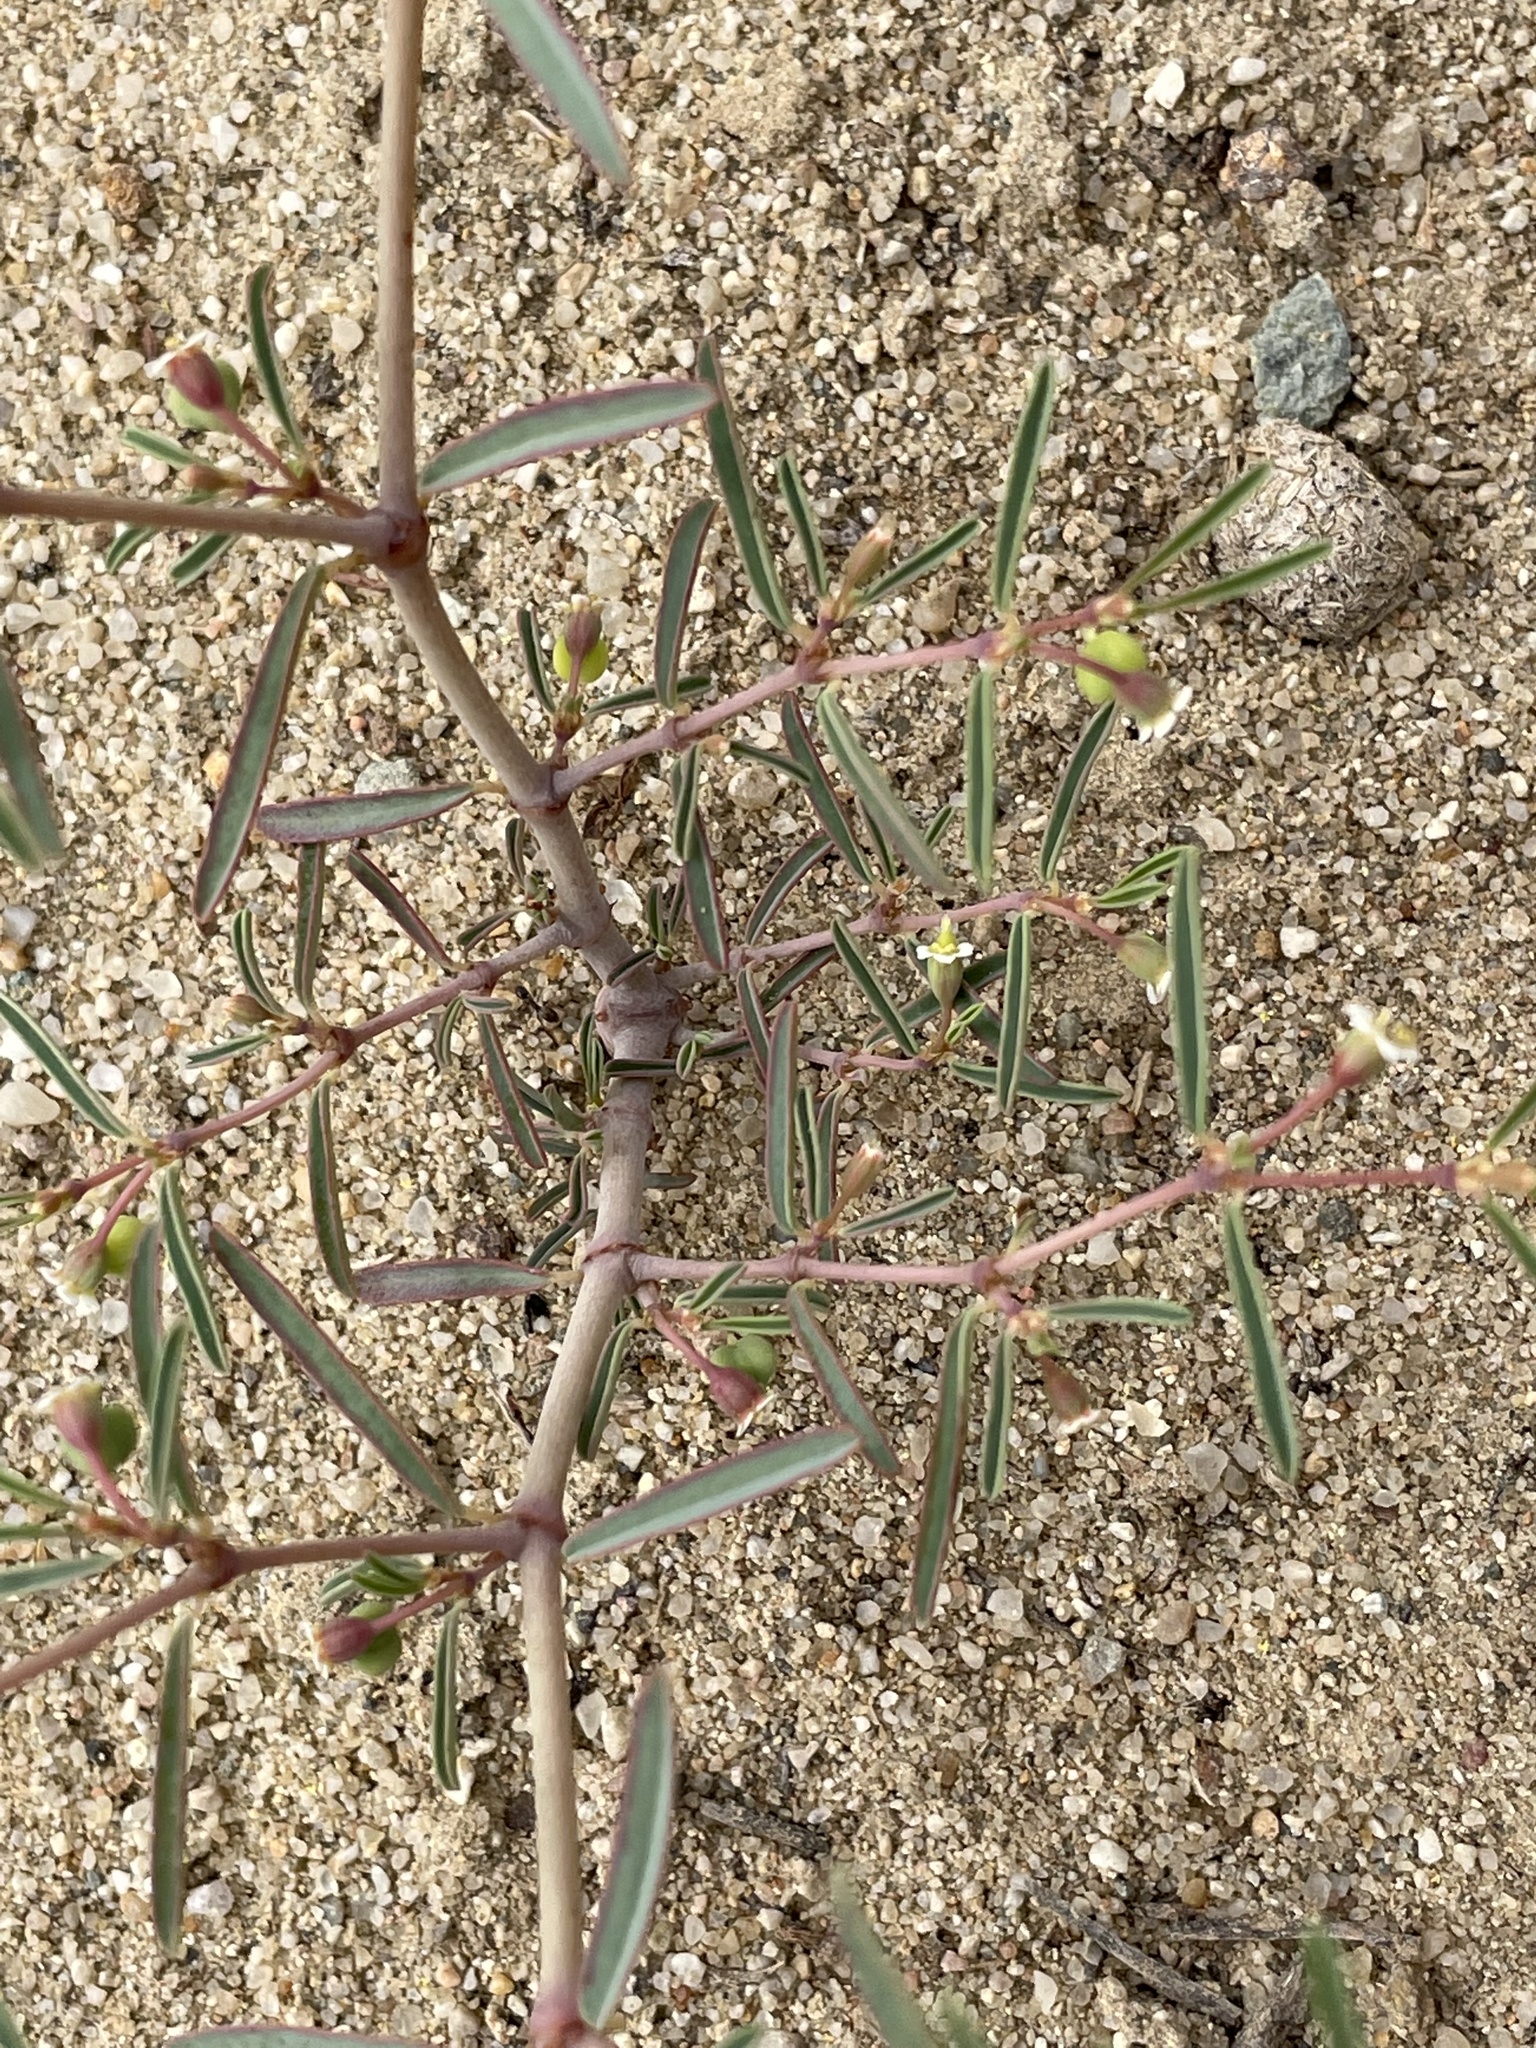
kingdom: Plantae
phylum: Tracheophyta
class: Magnoliopsida
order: Malpighiales
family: Euphorbiaceae
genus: Euphorbia
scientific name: Euphorbia missurica
